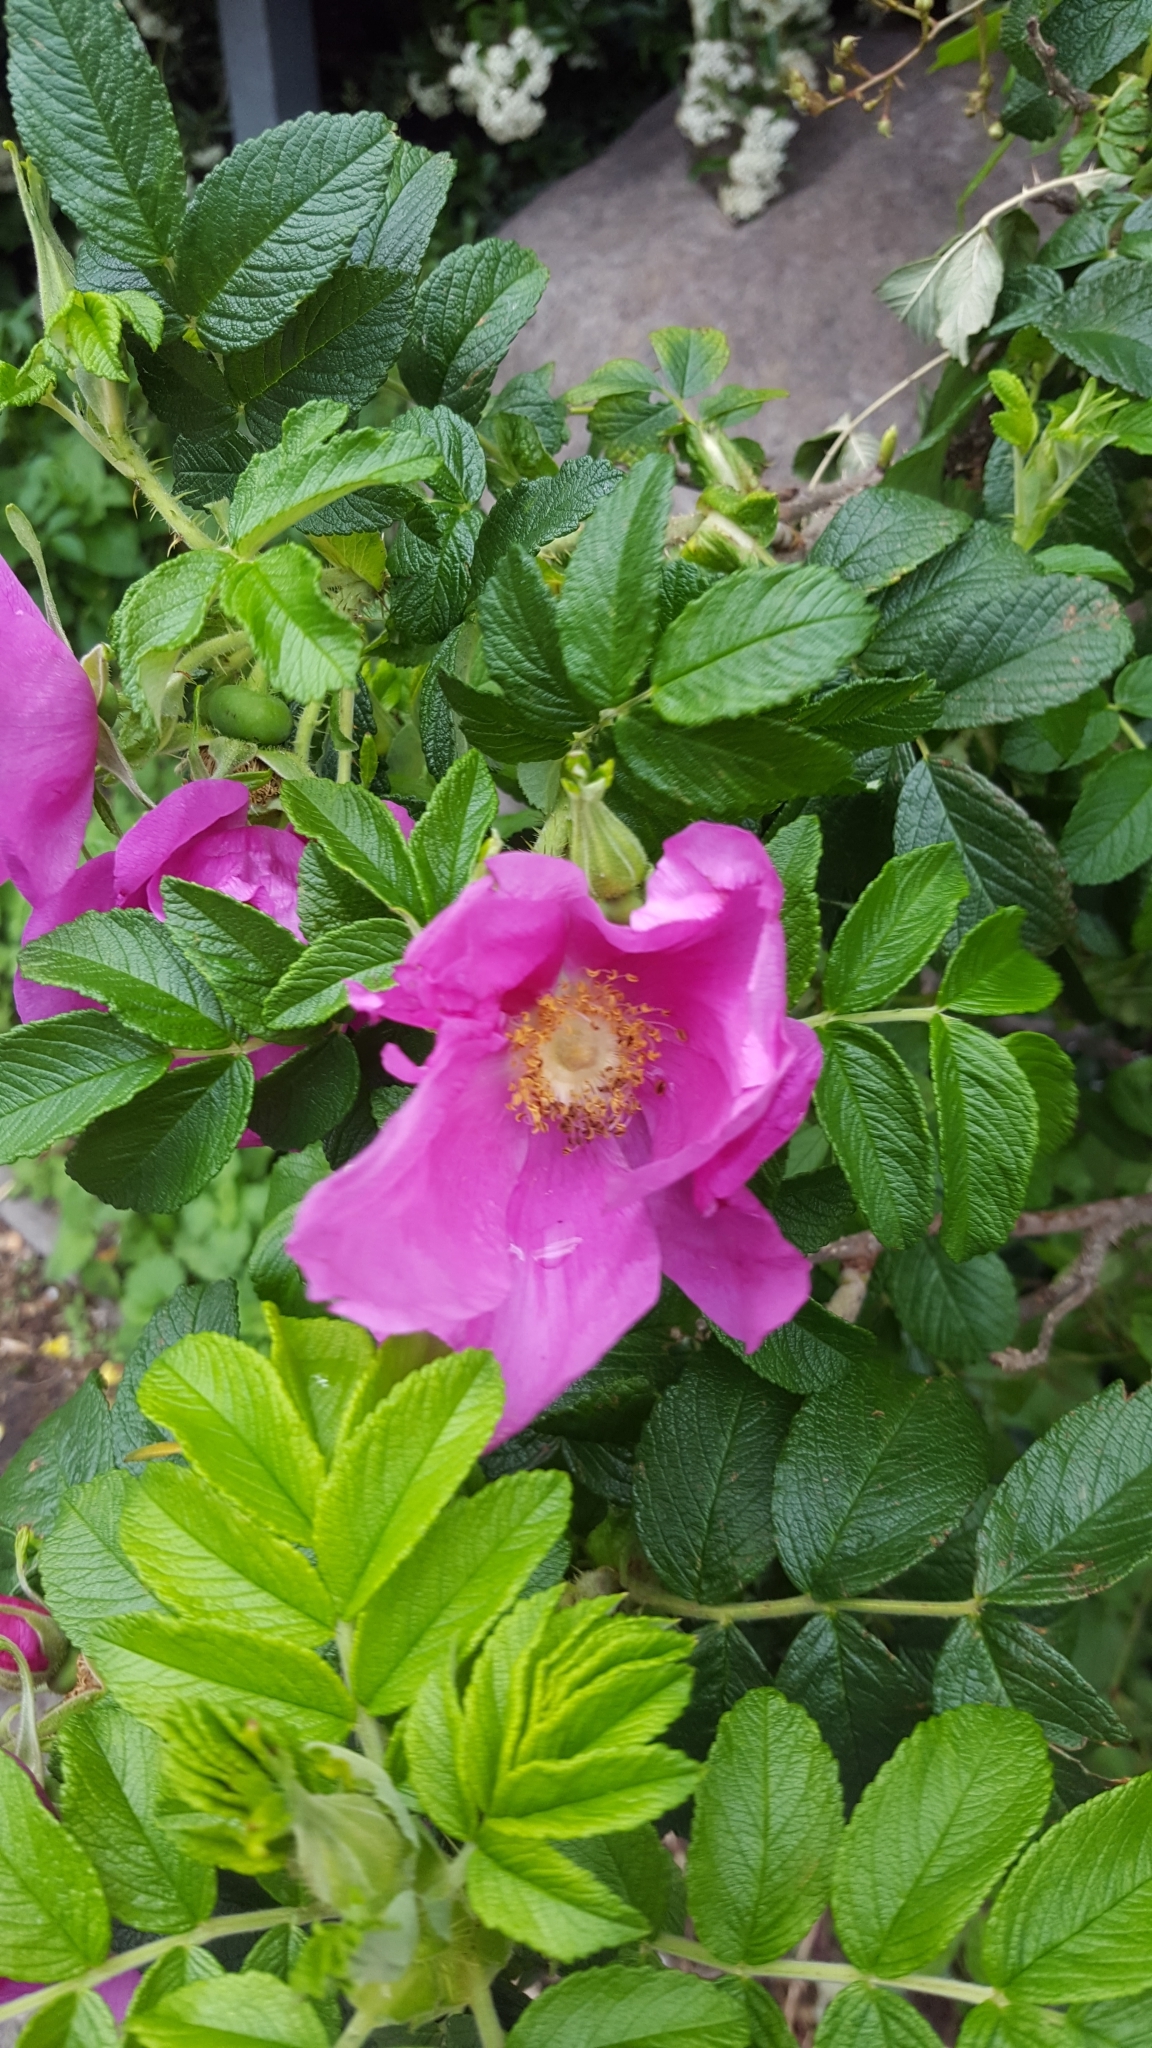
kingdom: Plantae
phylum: Tracheophyta
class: Magnoliopsida
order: Rosales
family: Rosaceae
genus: Rosa
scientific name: Rosa rugosa
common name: Japanese rose
